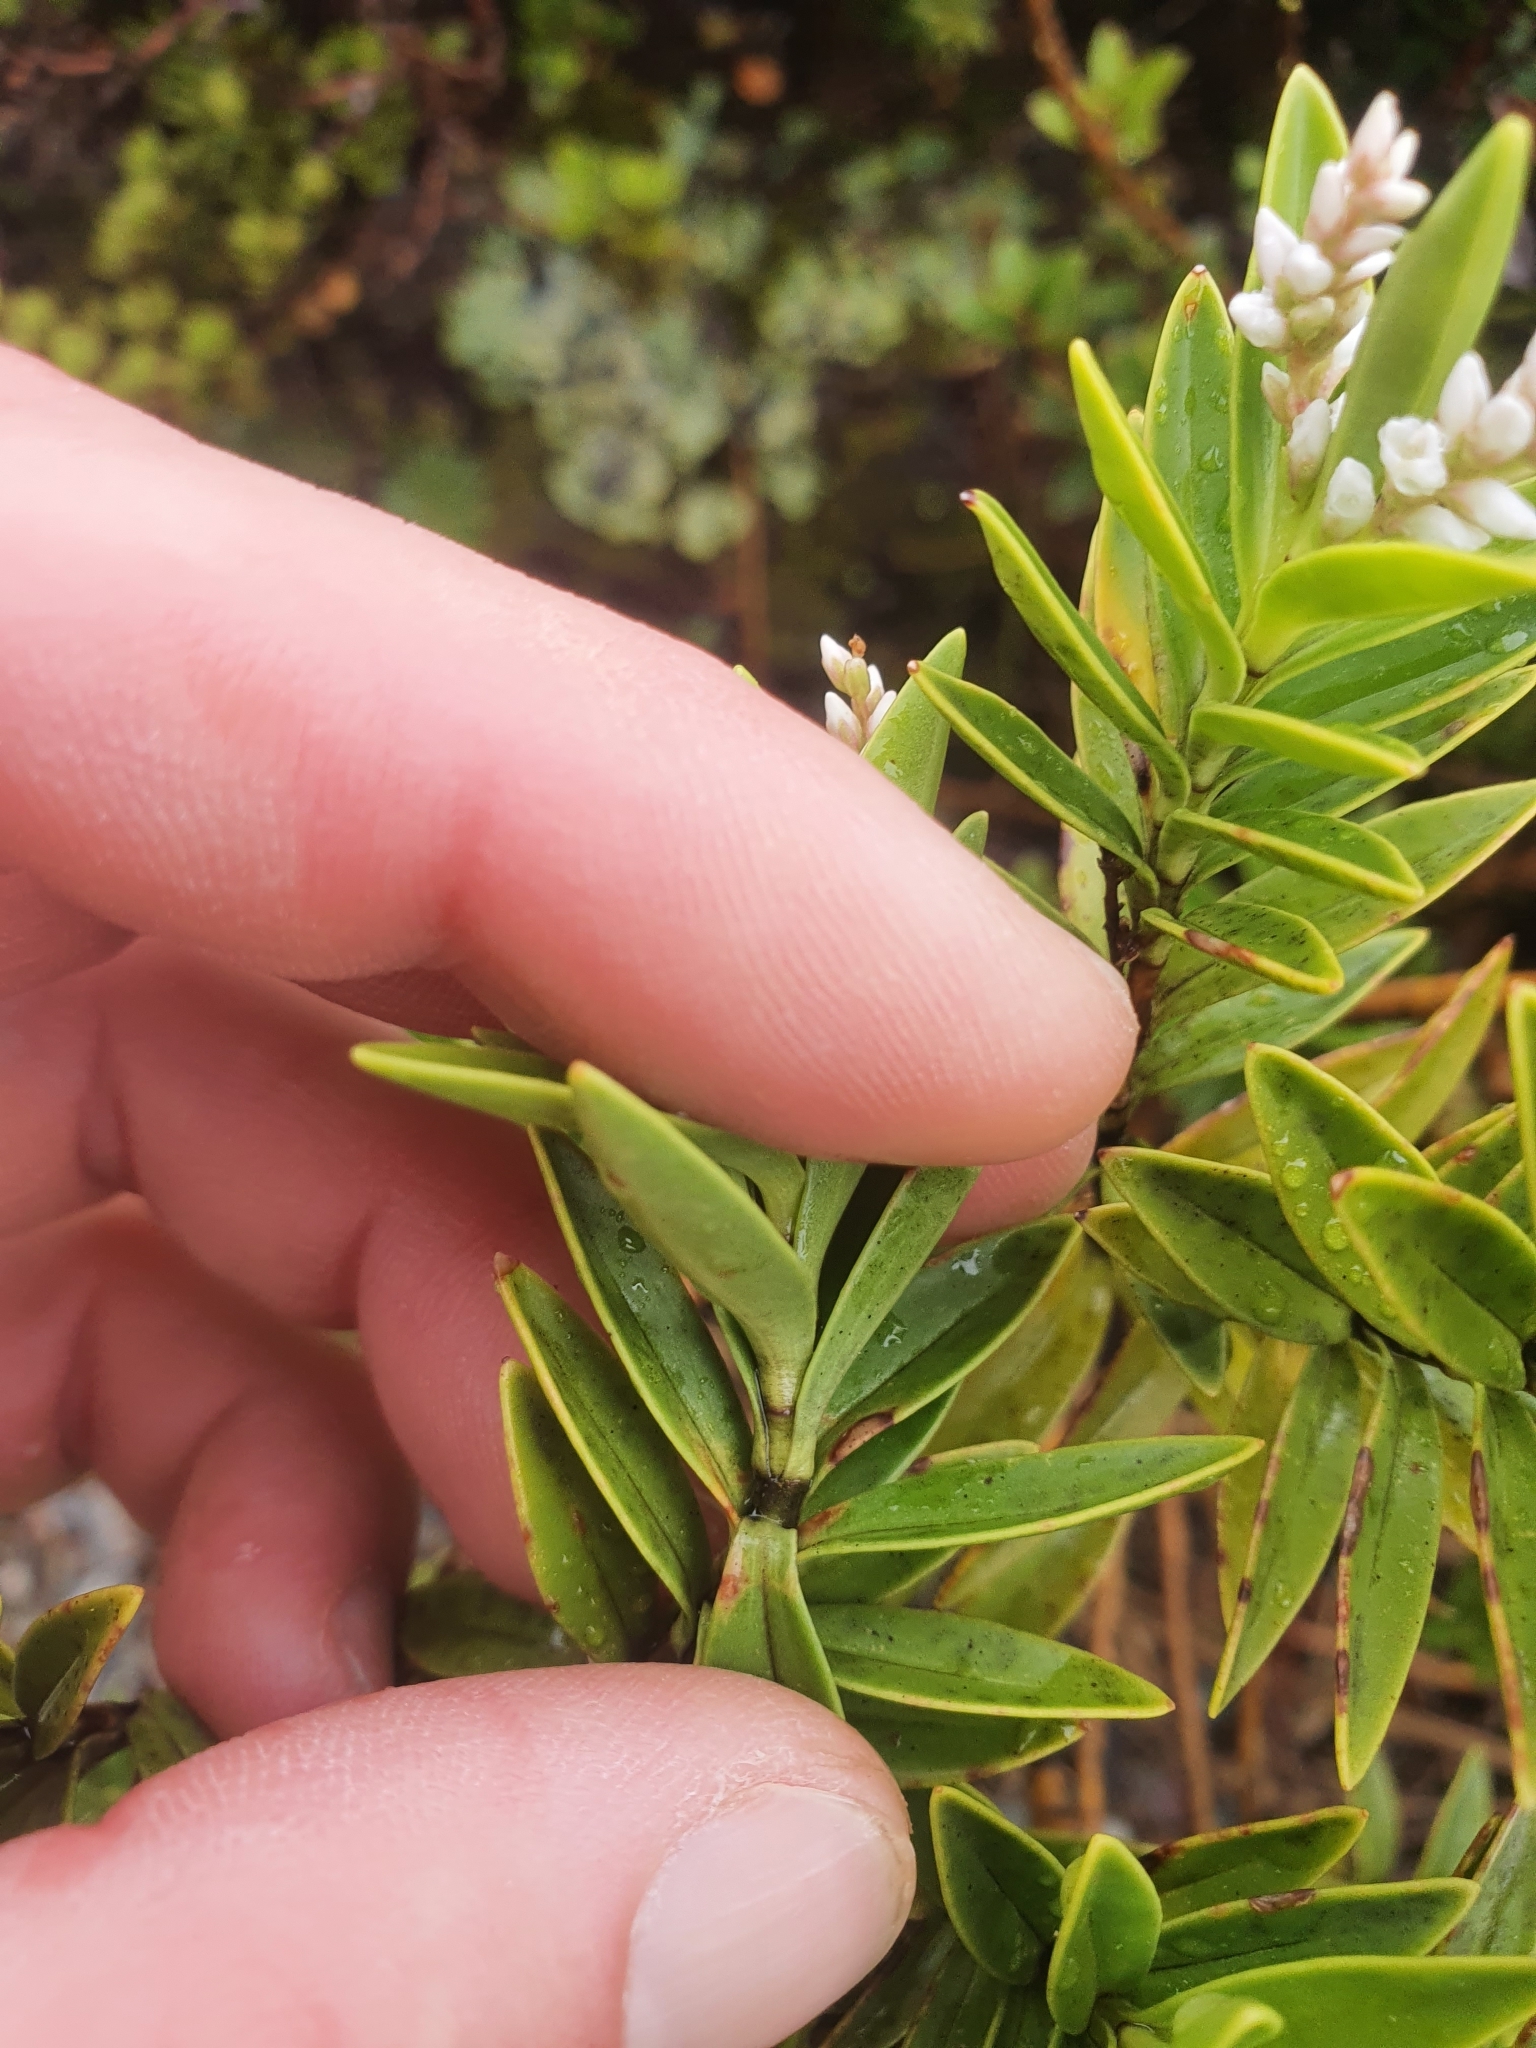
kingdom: Plantae
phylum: Tracheophyta
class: Magnoliopsida
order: Lamiales
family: Plantaginaceae
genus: Veronica
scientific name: Veronica subalpina
